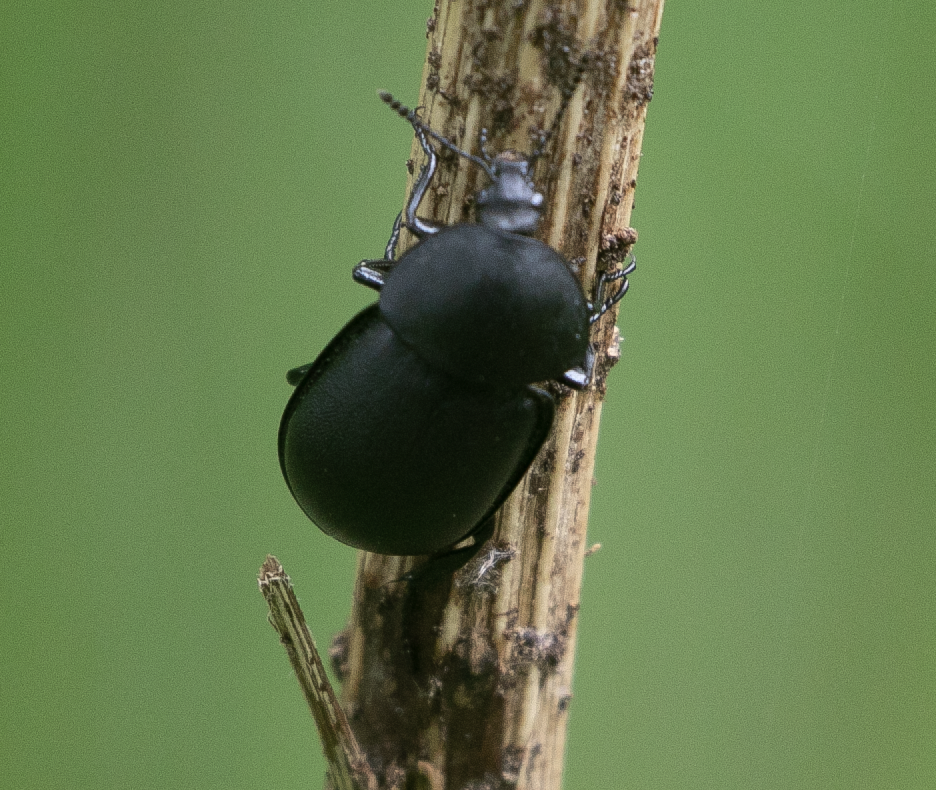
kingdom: Animalia
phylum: Arthropoda
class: Insecta
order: Coleoptera
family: Staphylinidae
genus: Silpha
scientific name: Silpha laevigata
